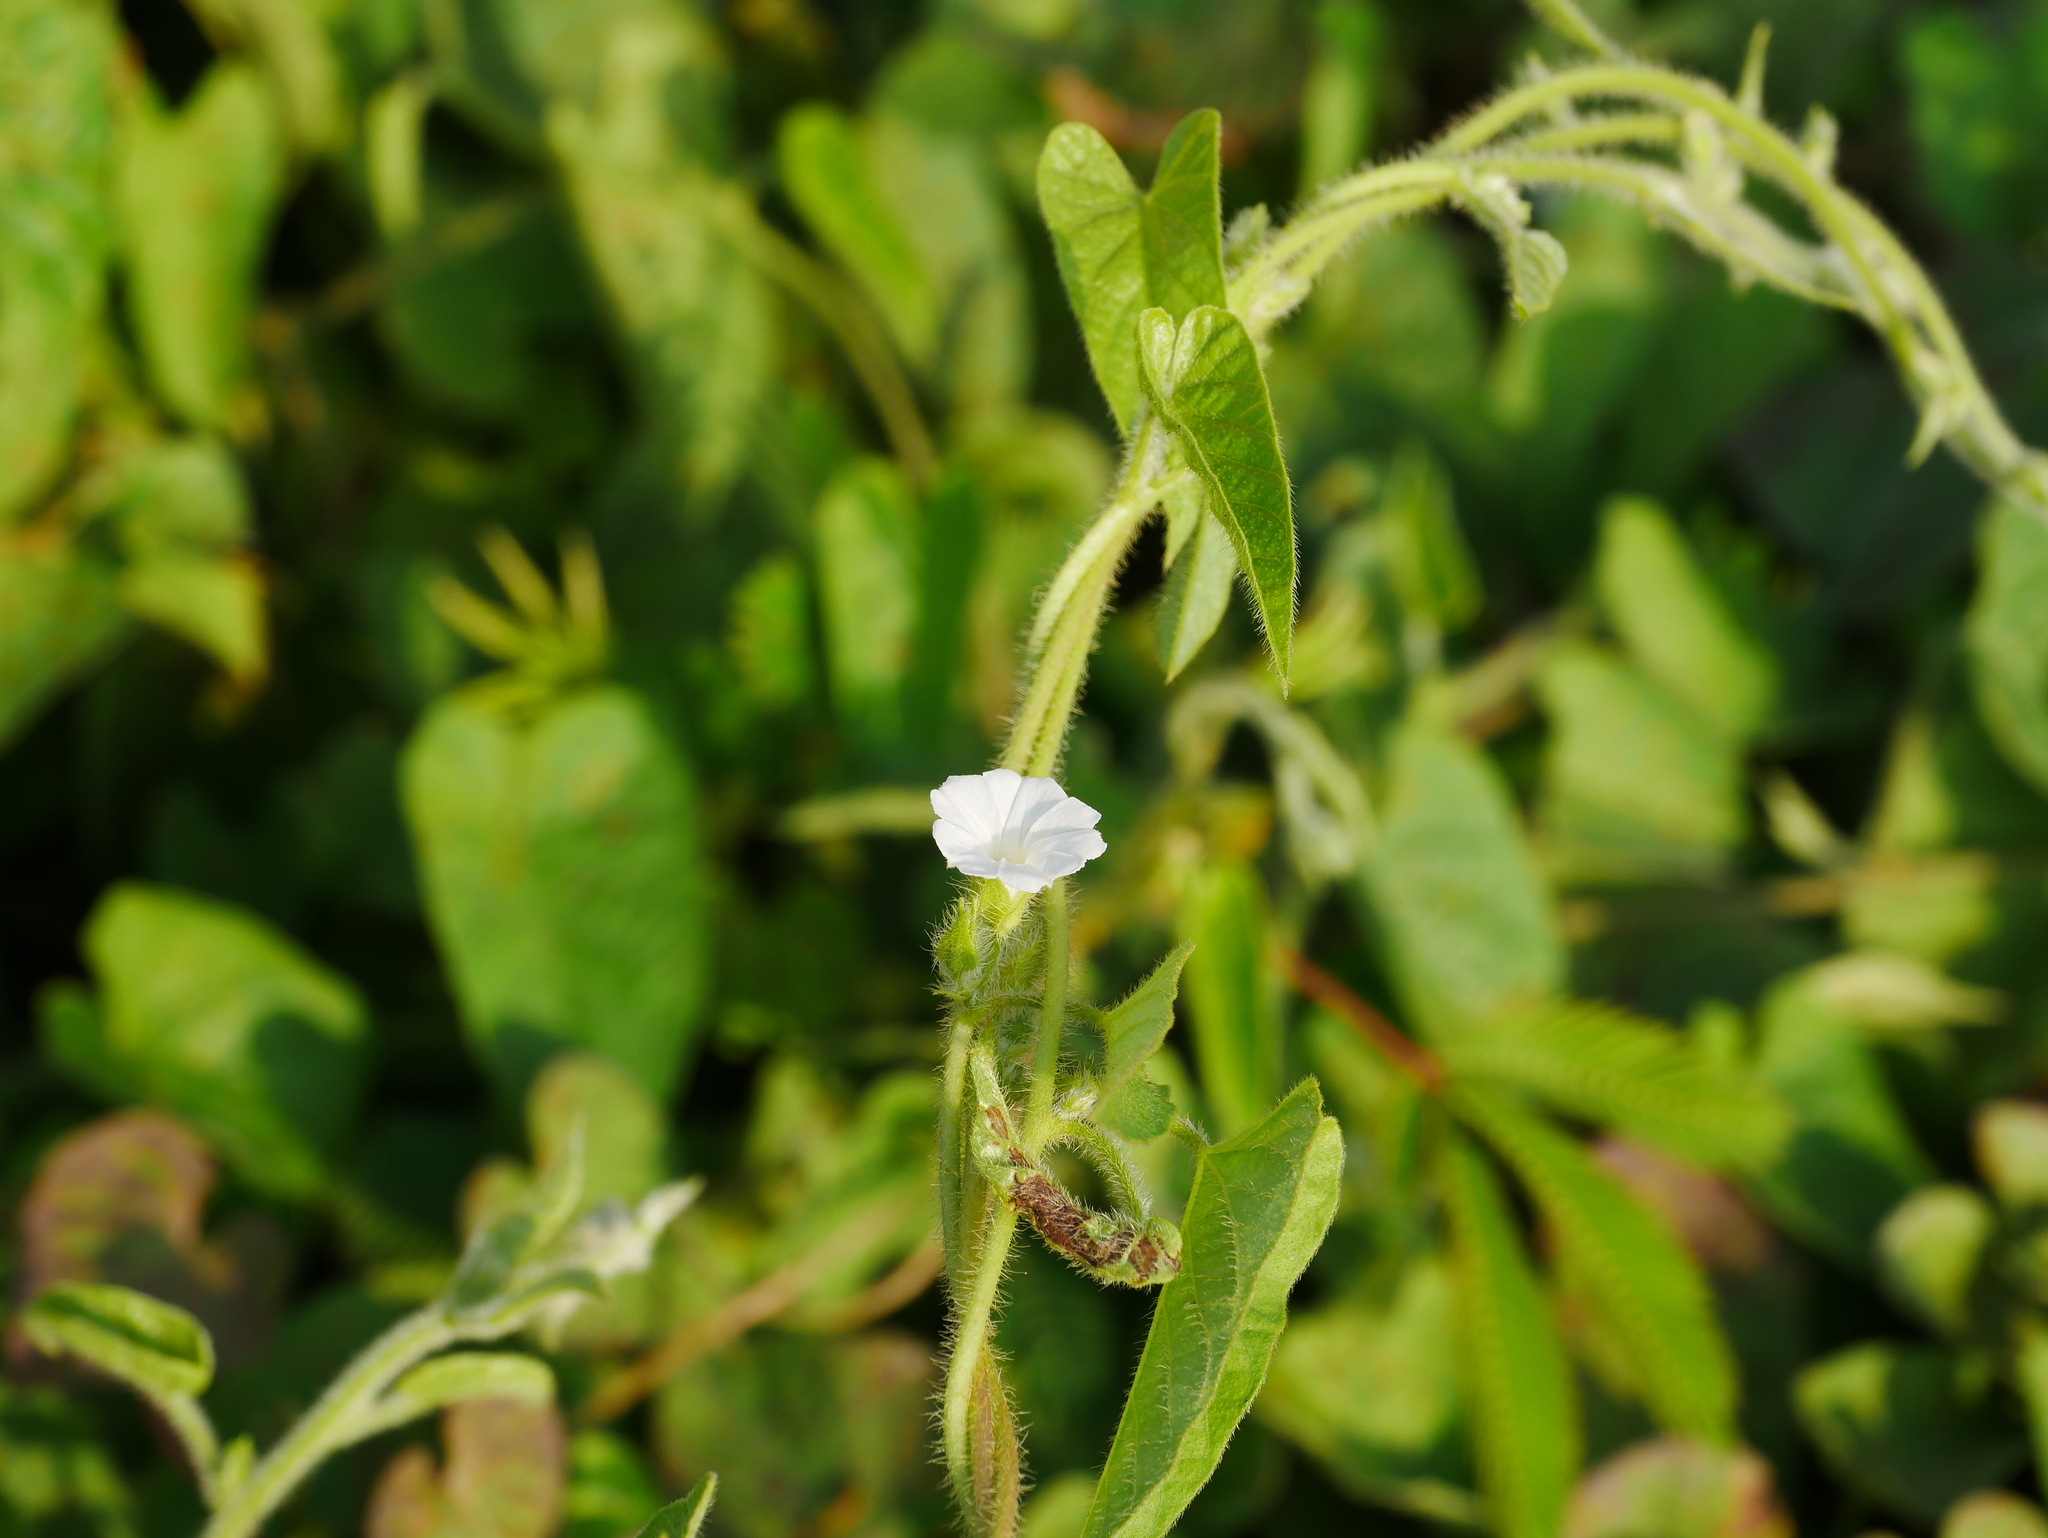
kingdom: Plantae
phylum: Tracheophyta
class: Magnoliopsida
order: Solanales
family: Convolvulaceae
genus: Ipomoea
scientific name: Ipomoea biflora
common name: Bellvine
